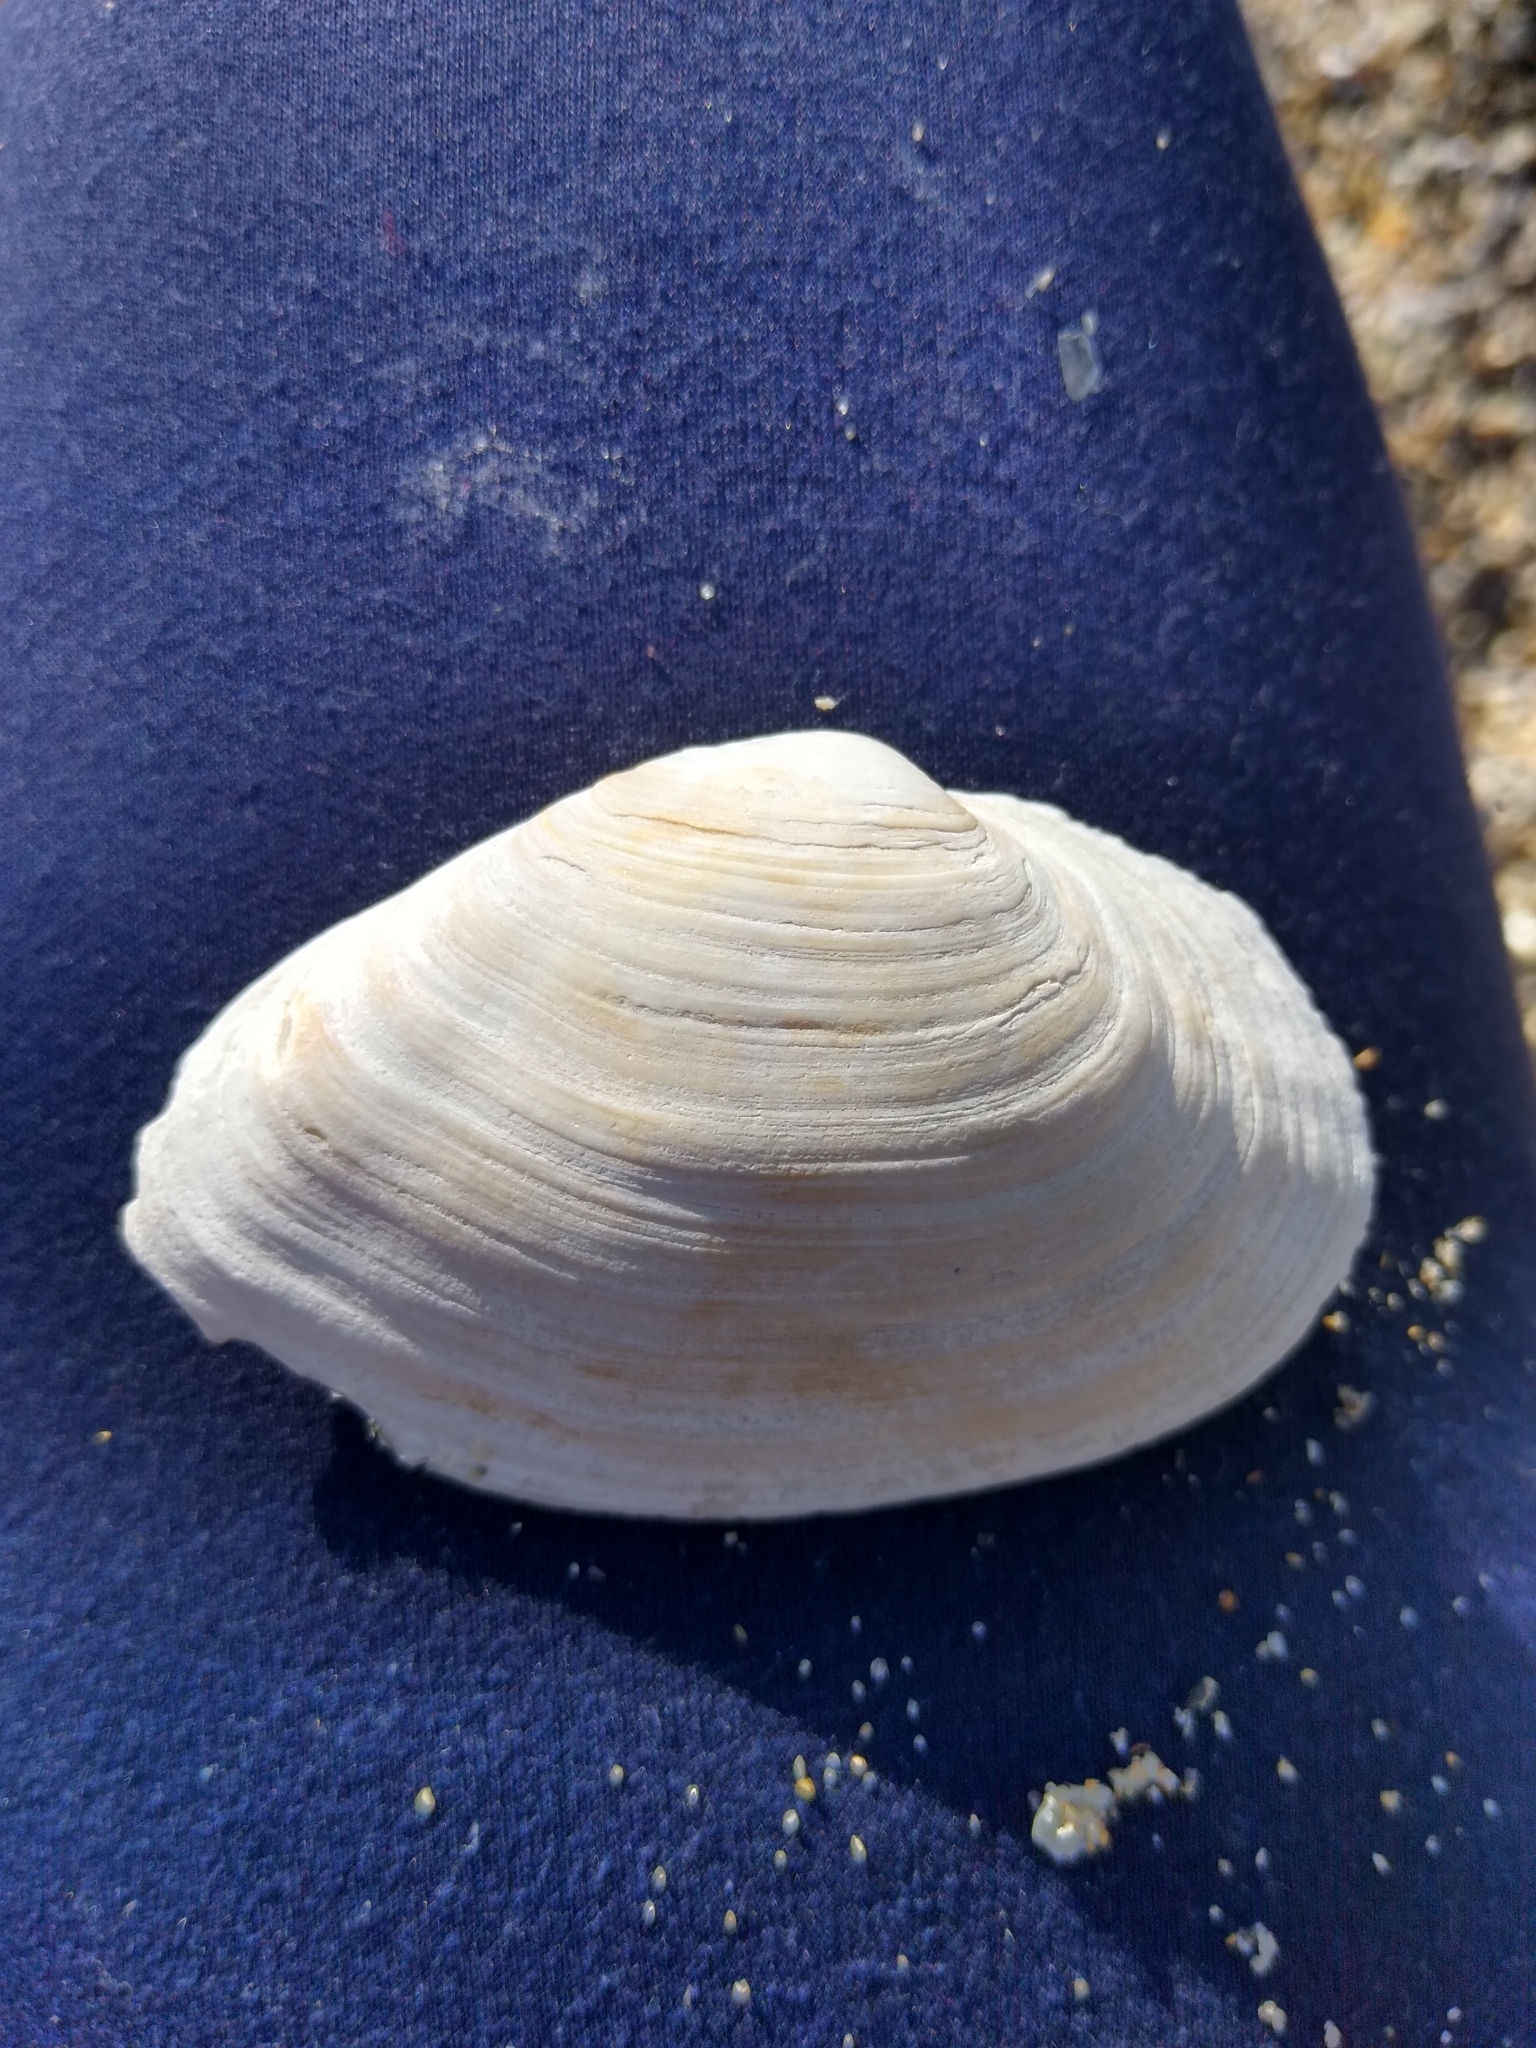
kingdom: Animalia
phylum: Mollusca
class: Bivalvia
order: Myida
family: Myidae
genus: Mya
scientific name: Mya arenaria
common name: Soft-shelled clam
